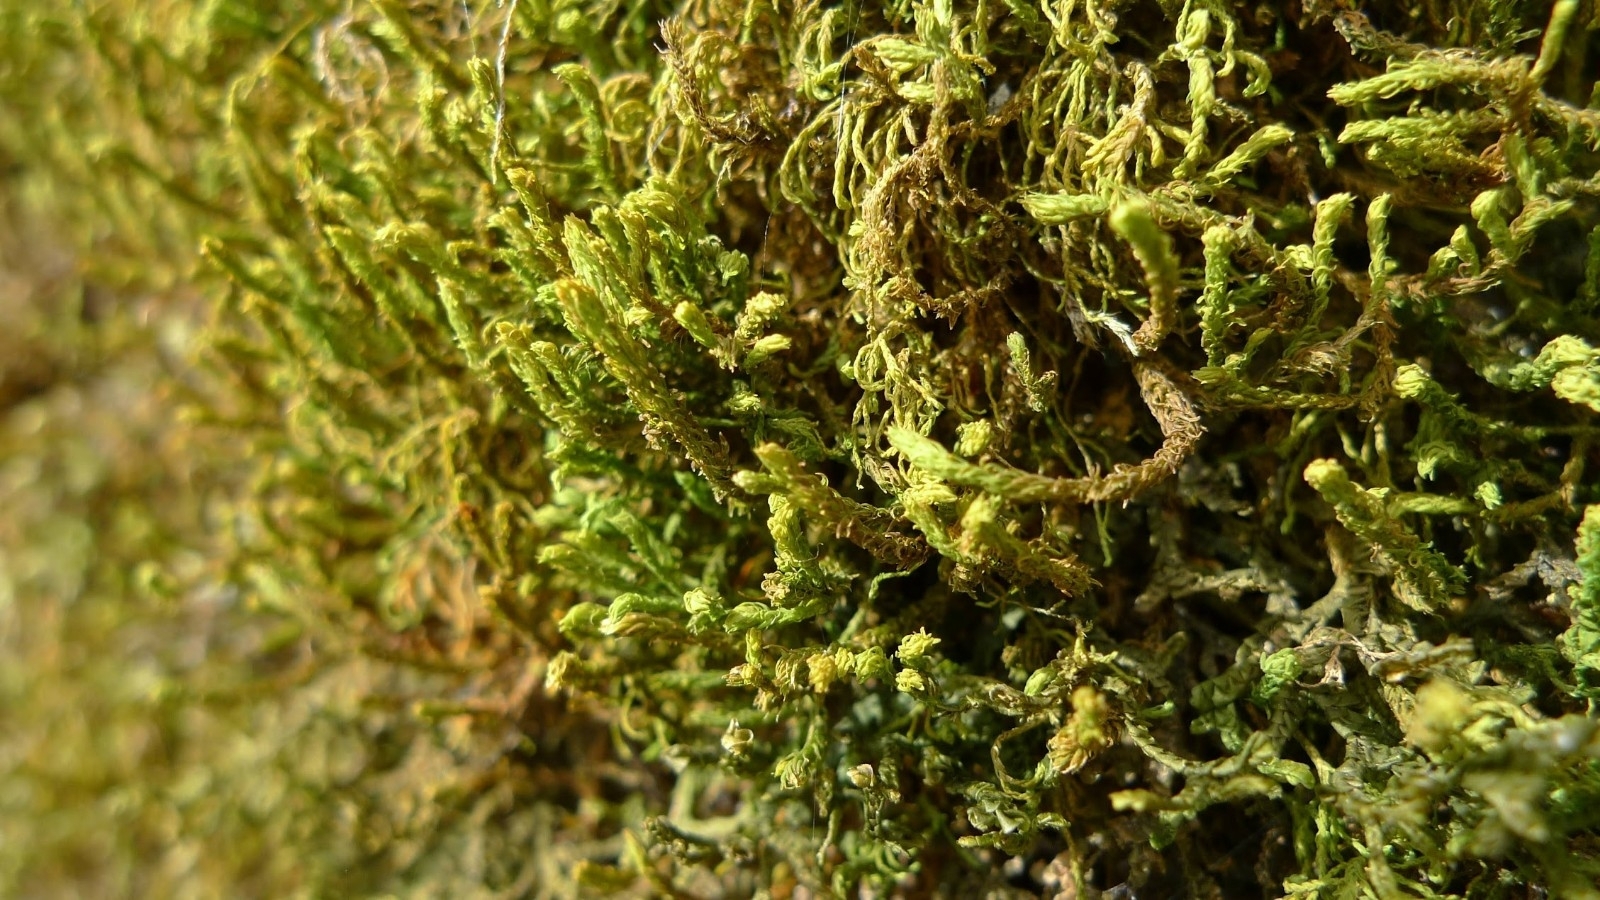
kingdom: Plantae
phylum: Bryophyta
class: Bryopsida
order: Hypnales
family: Anomodontaceae
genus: Anomodon
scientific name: Anomodon viticulosus
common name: Tall anomodon
